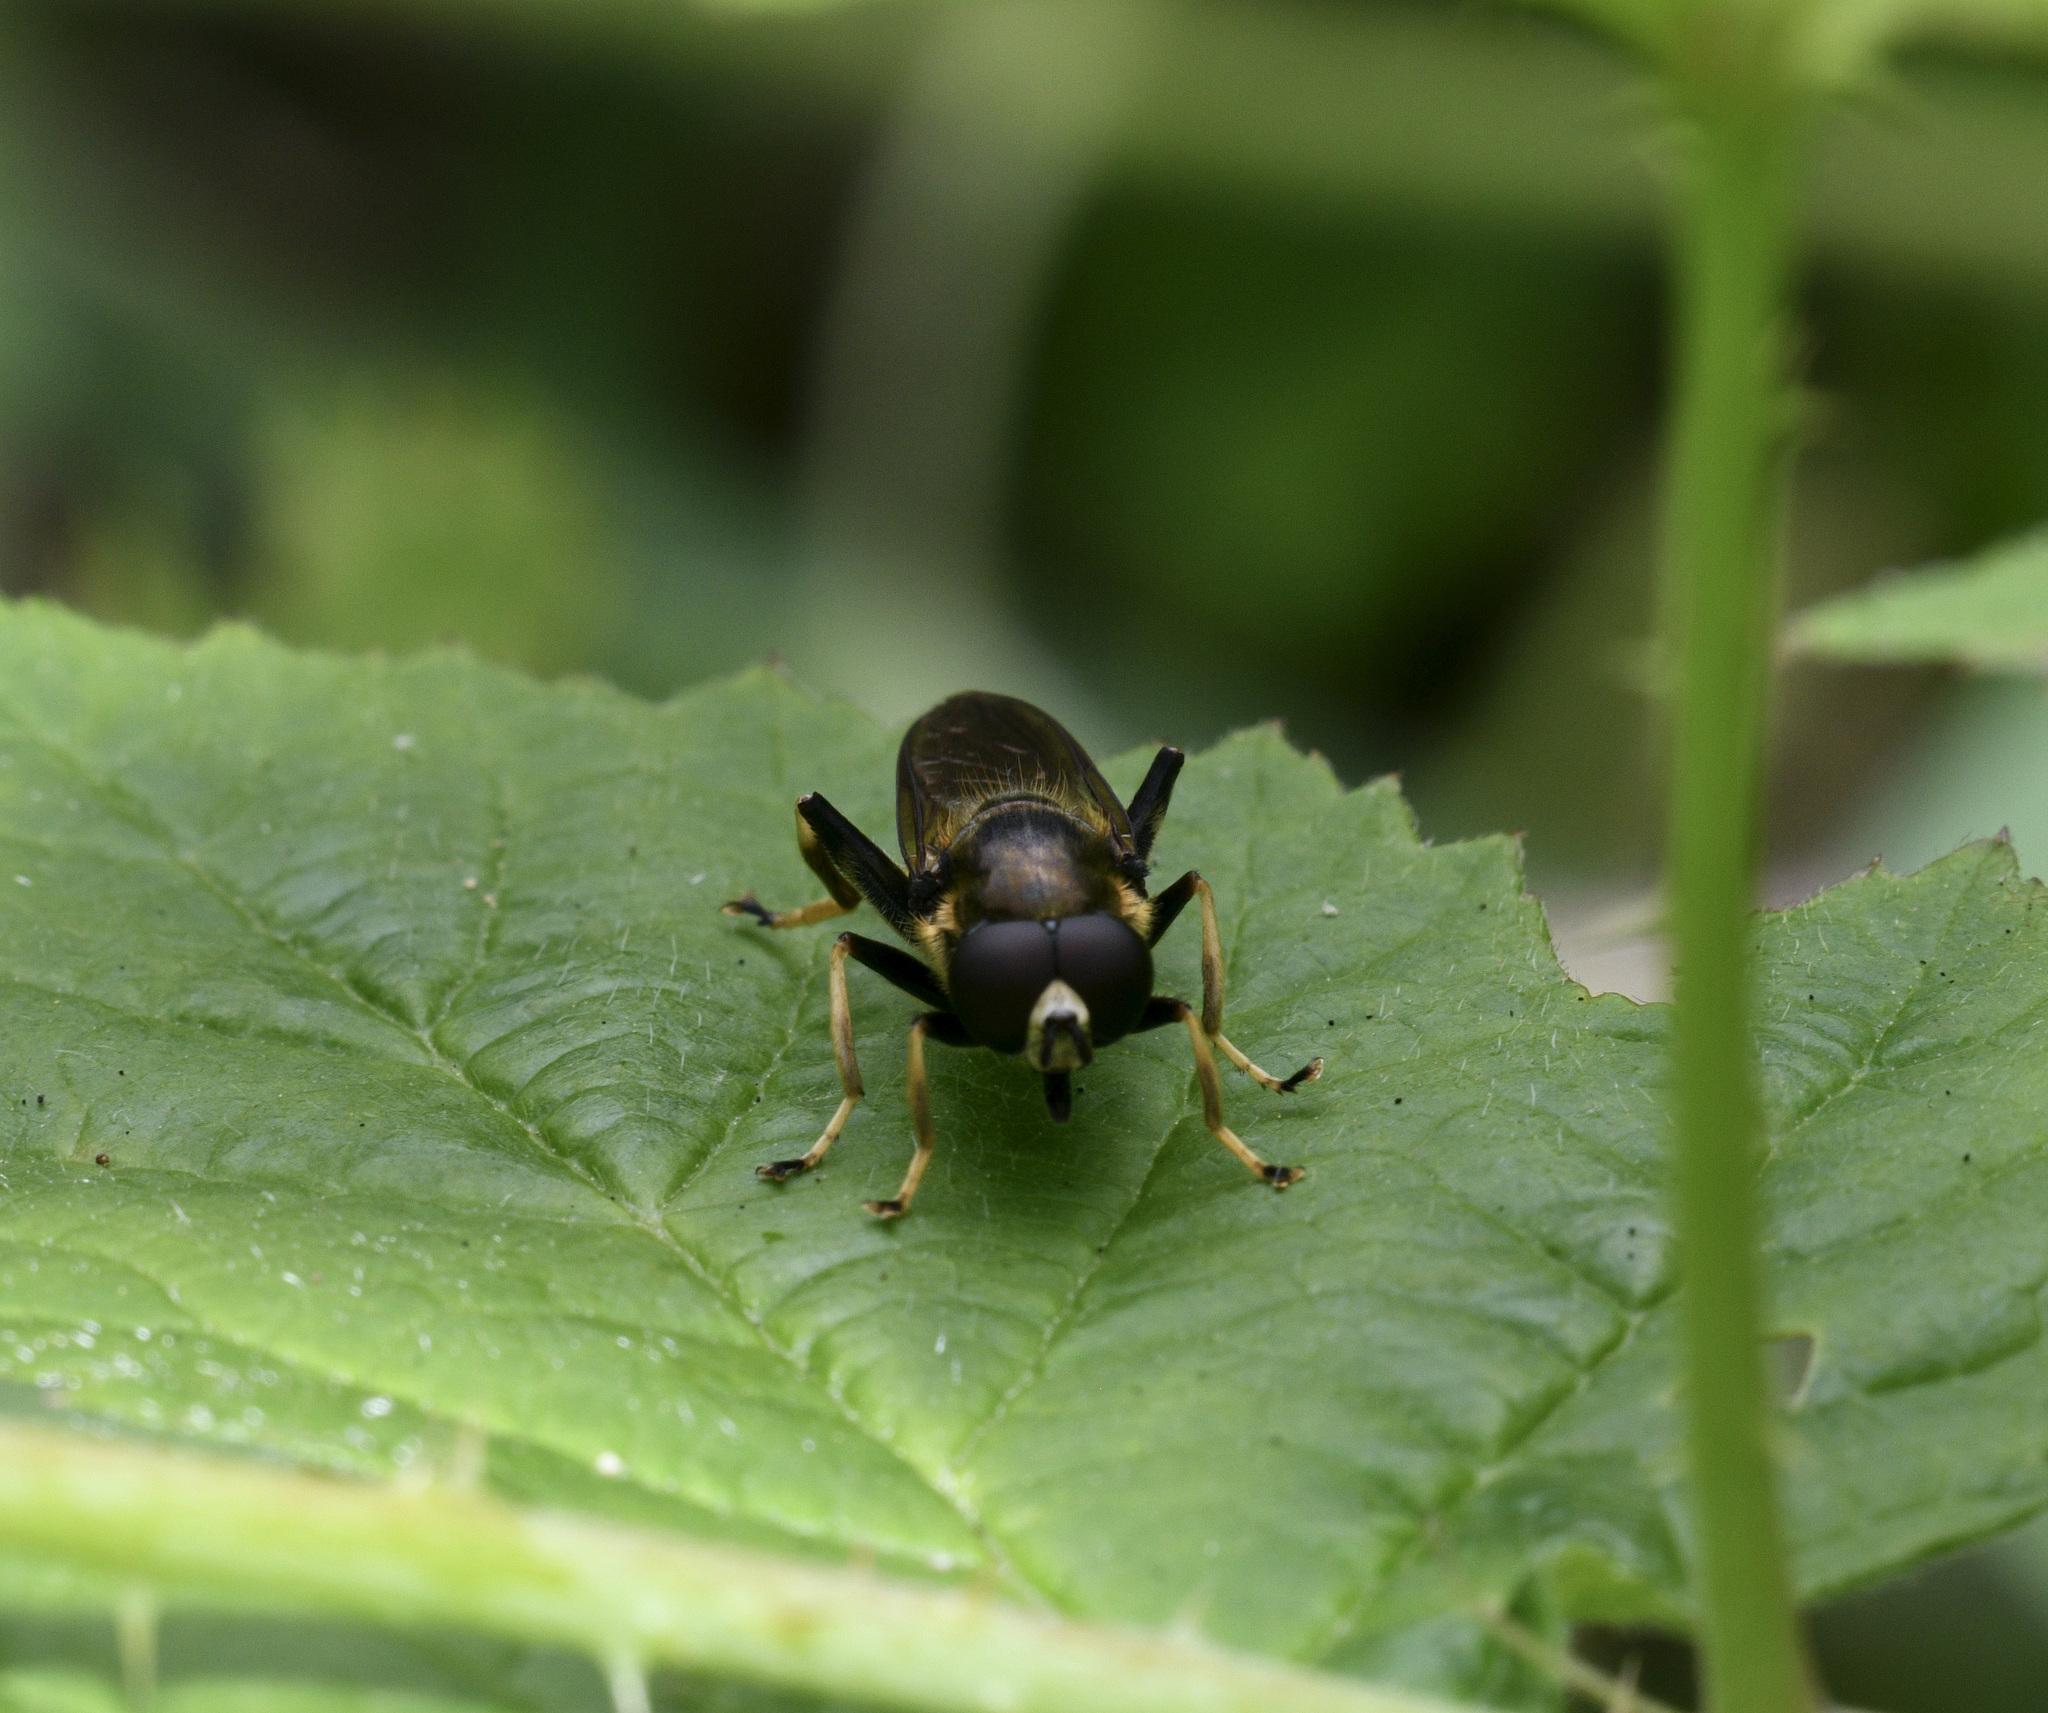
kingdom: Animalia
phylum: Arthropoda
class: Insecta
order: Diptera
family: Syrphidae
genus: Xylota
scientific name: Xylota
